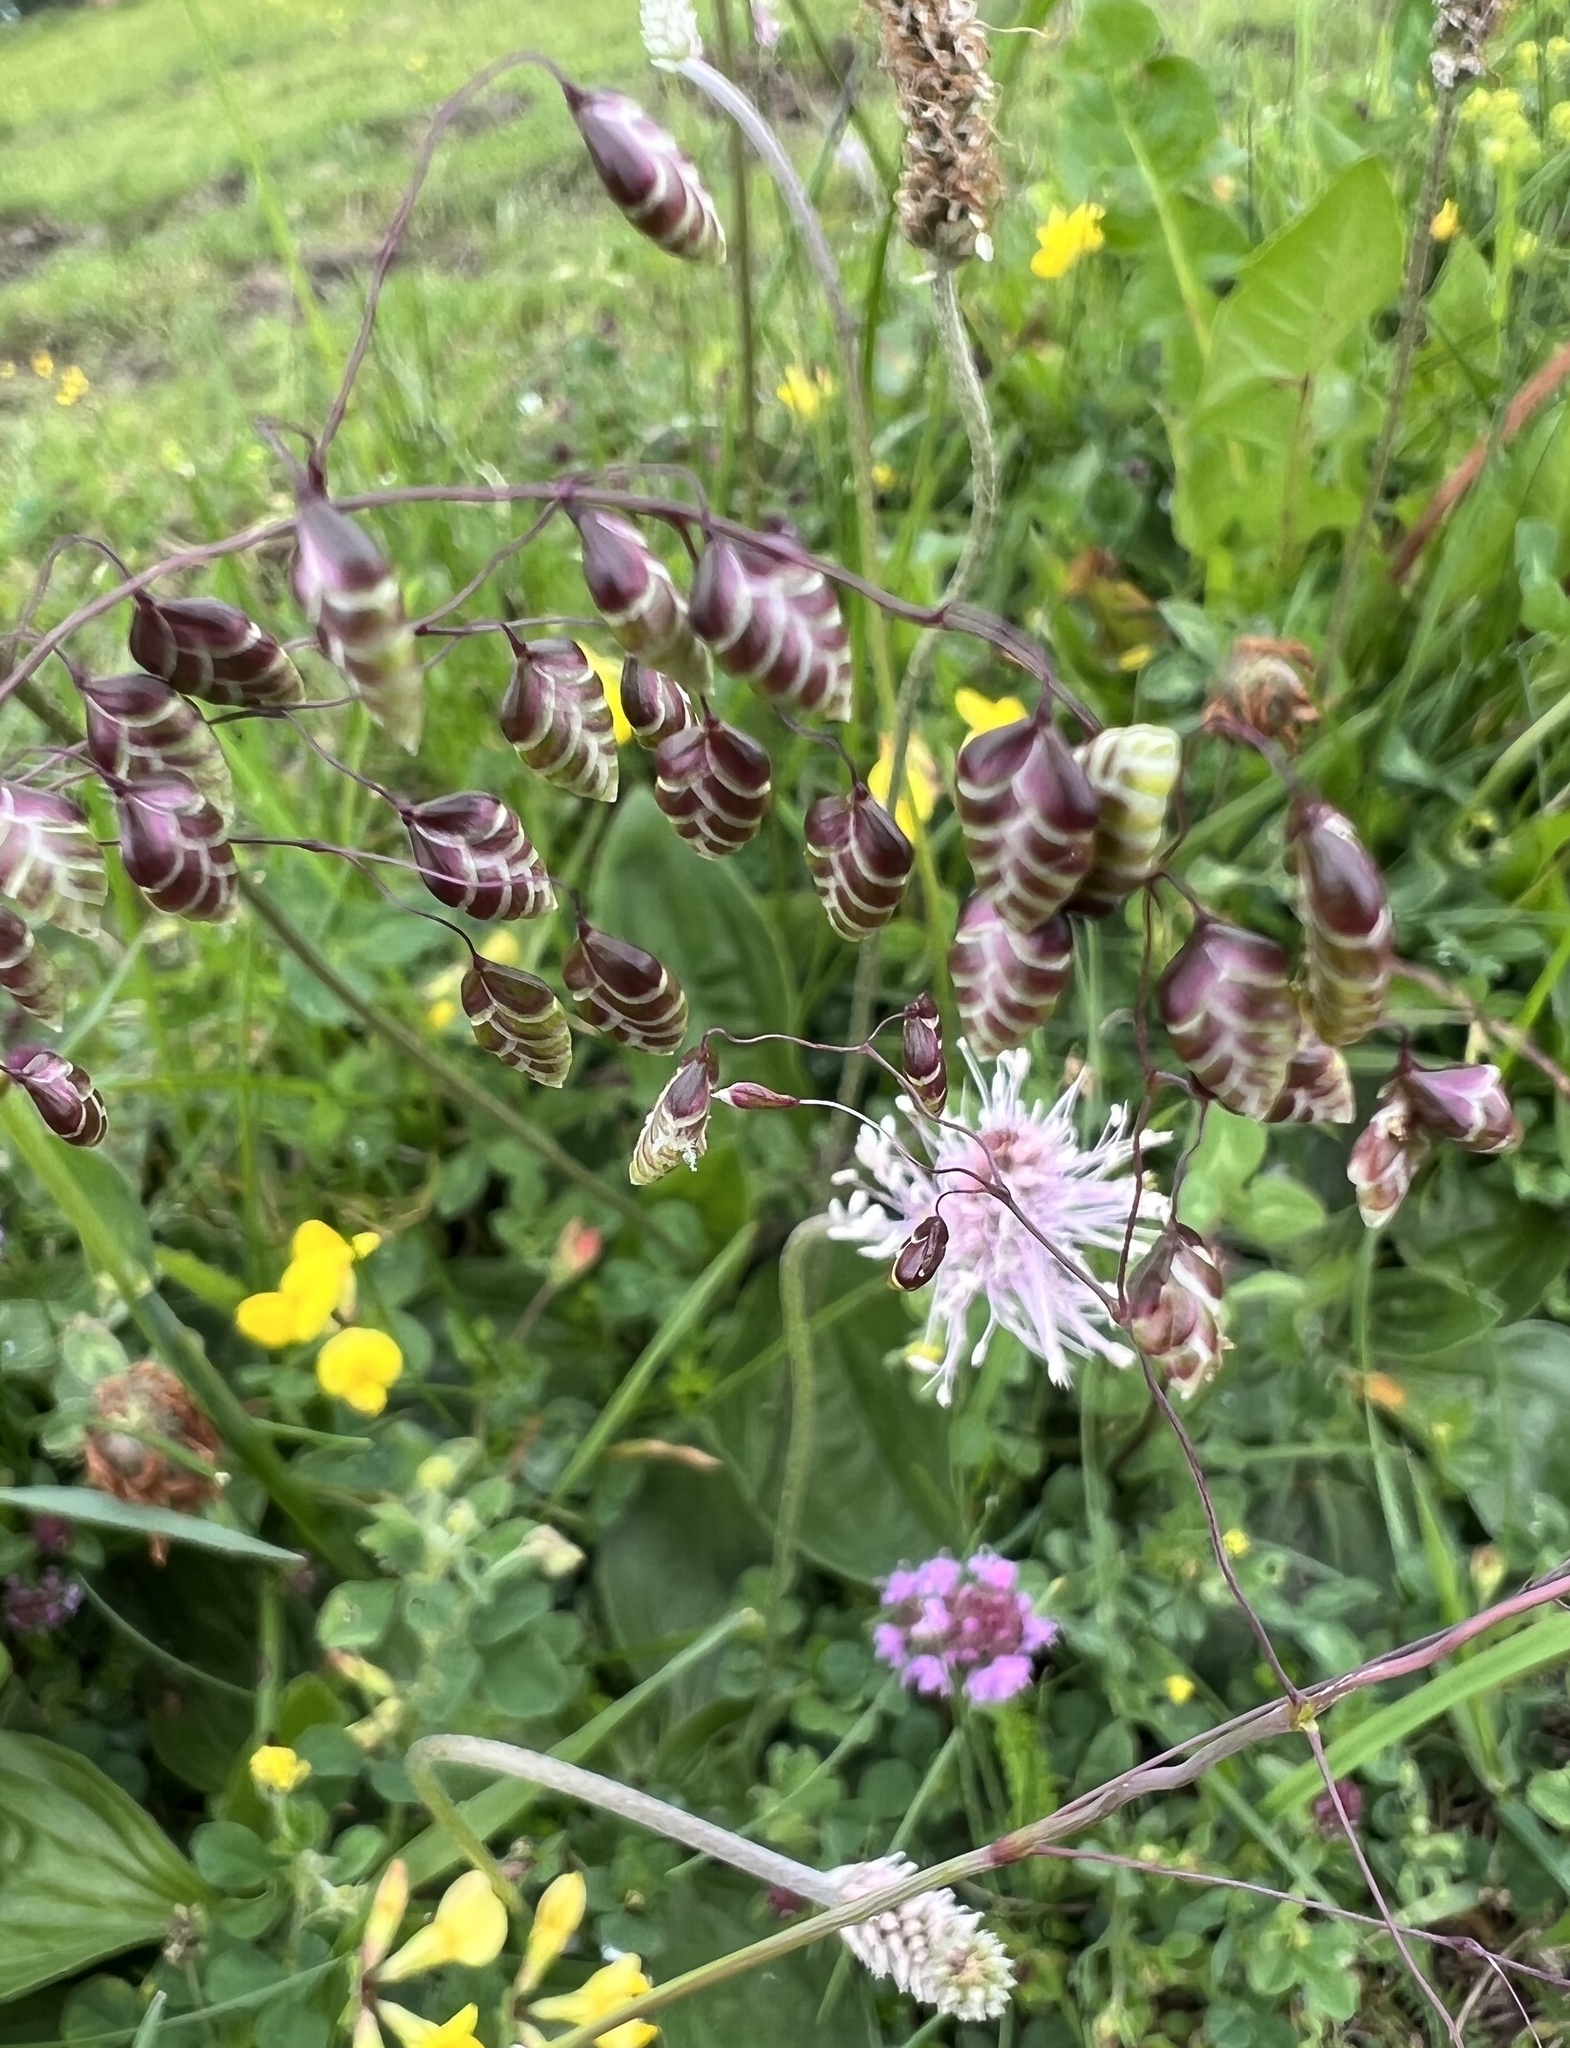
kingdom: Plantae
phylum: Tracheophyta
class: Liliopsida
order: Poales
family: Poaceae
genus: Briza
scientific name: Briza media
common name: Quaking grass
